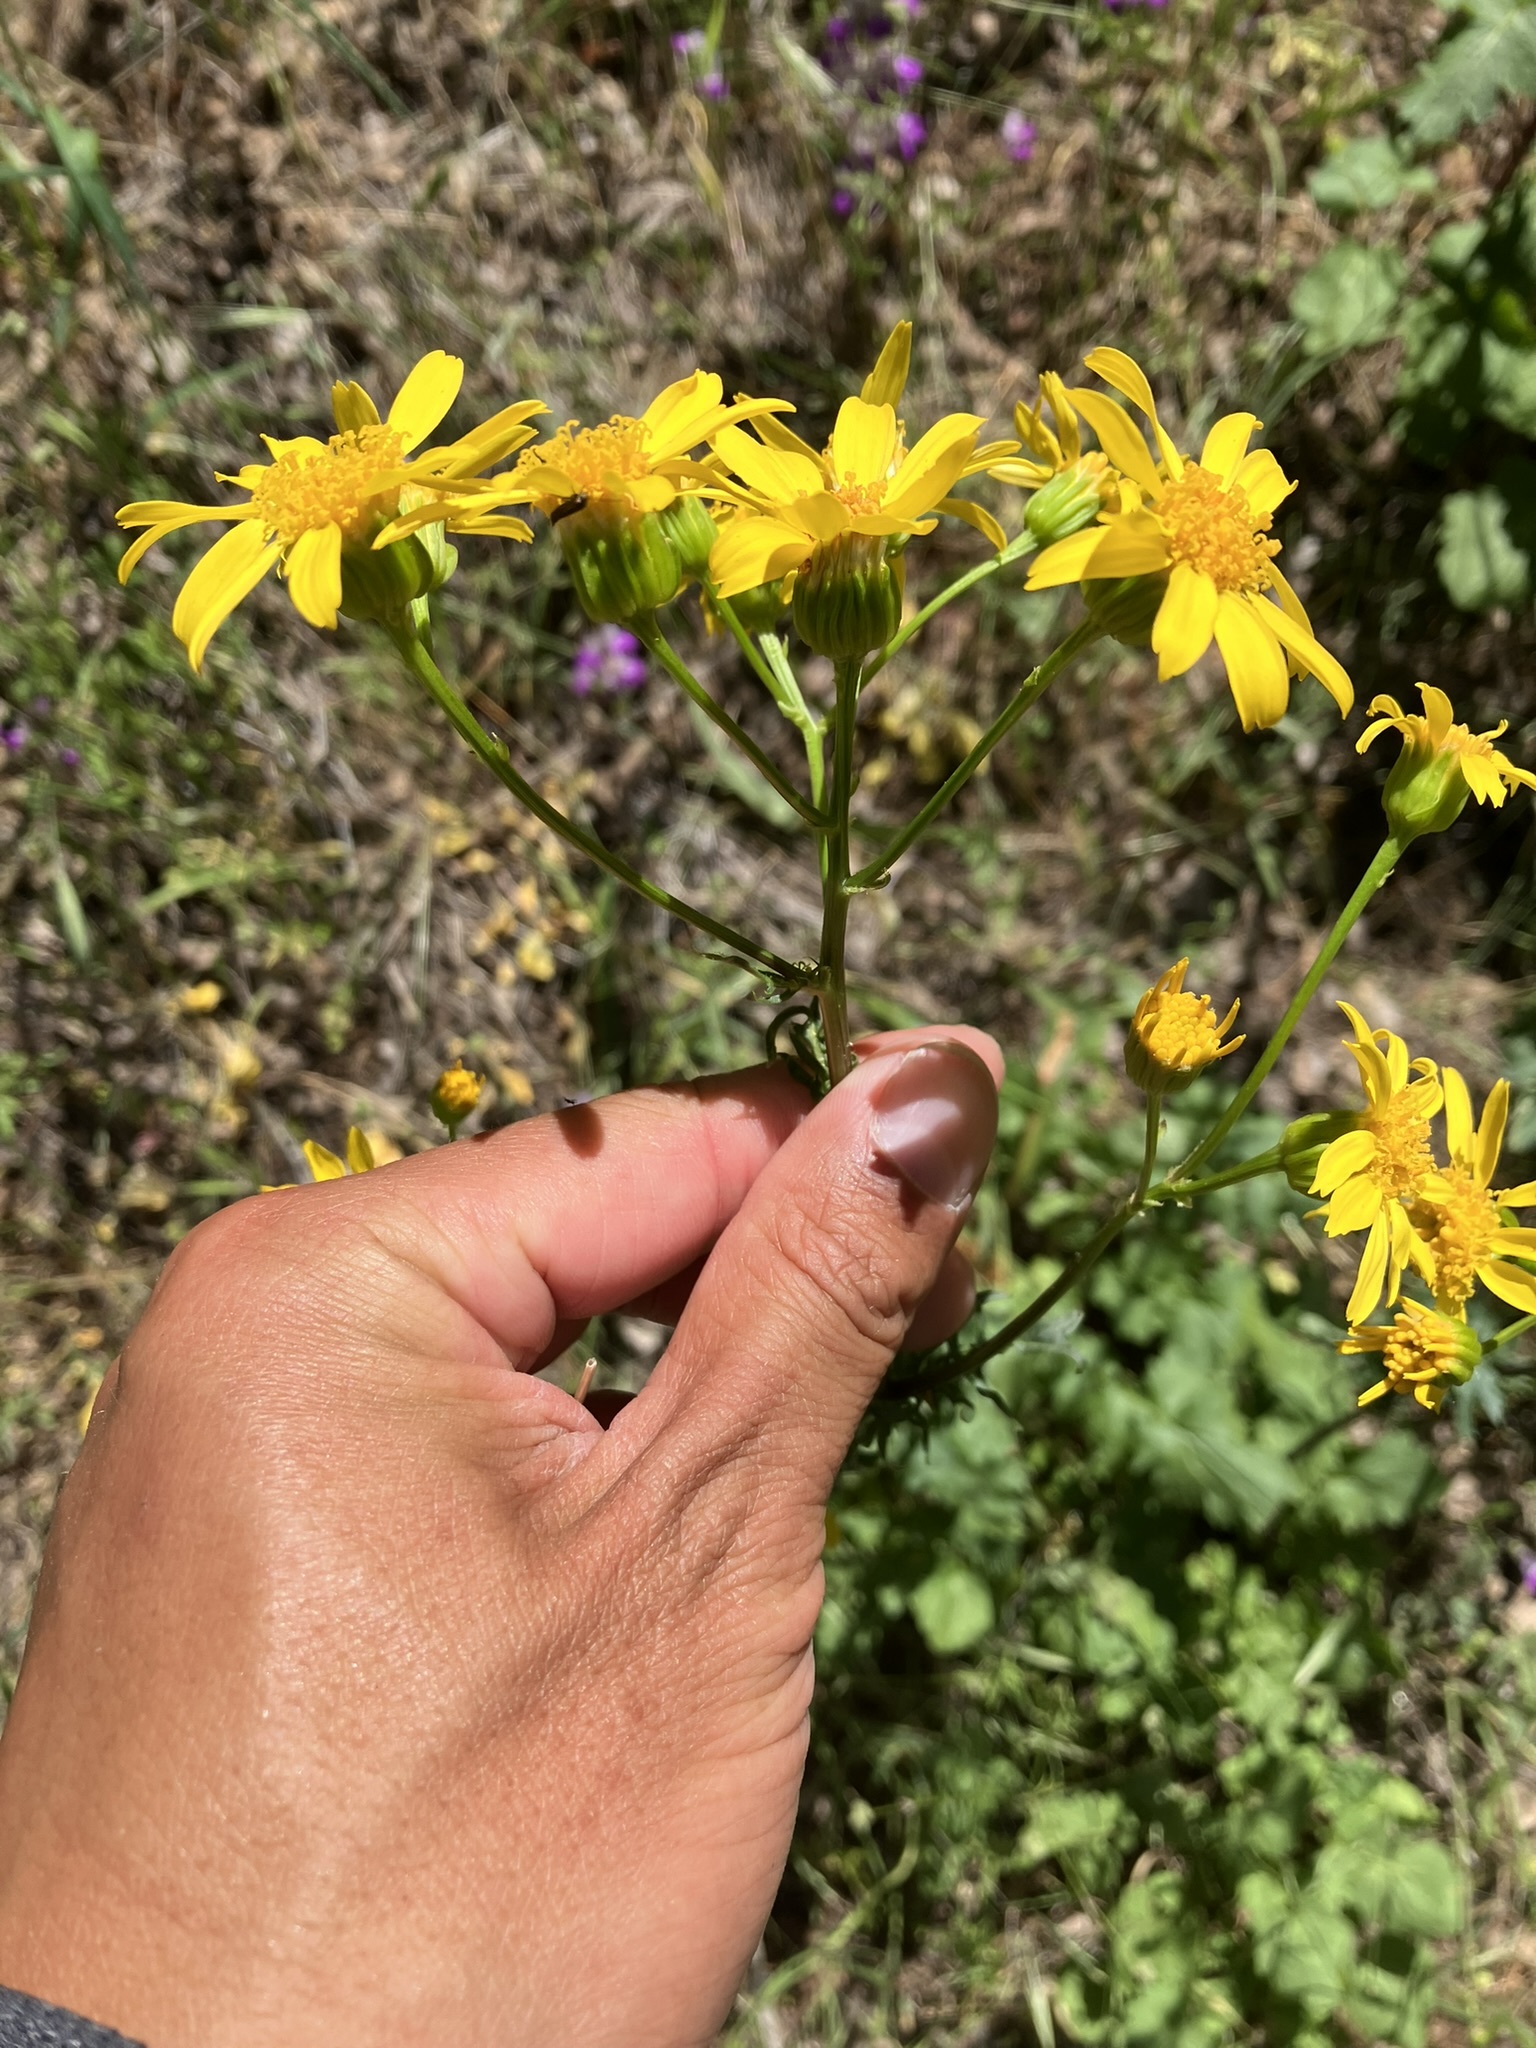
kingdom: Plantae
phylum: Tracheophyta
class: Magnoliopsida
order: Asterales
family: Asteraceae
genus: Packera
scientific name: Packera breweri
